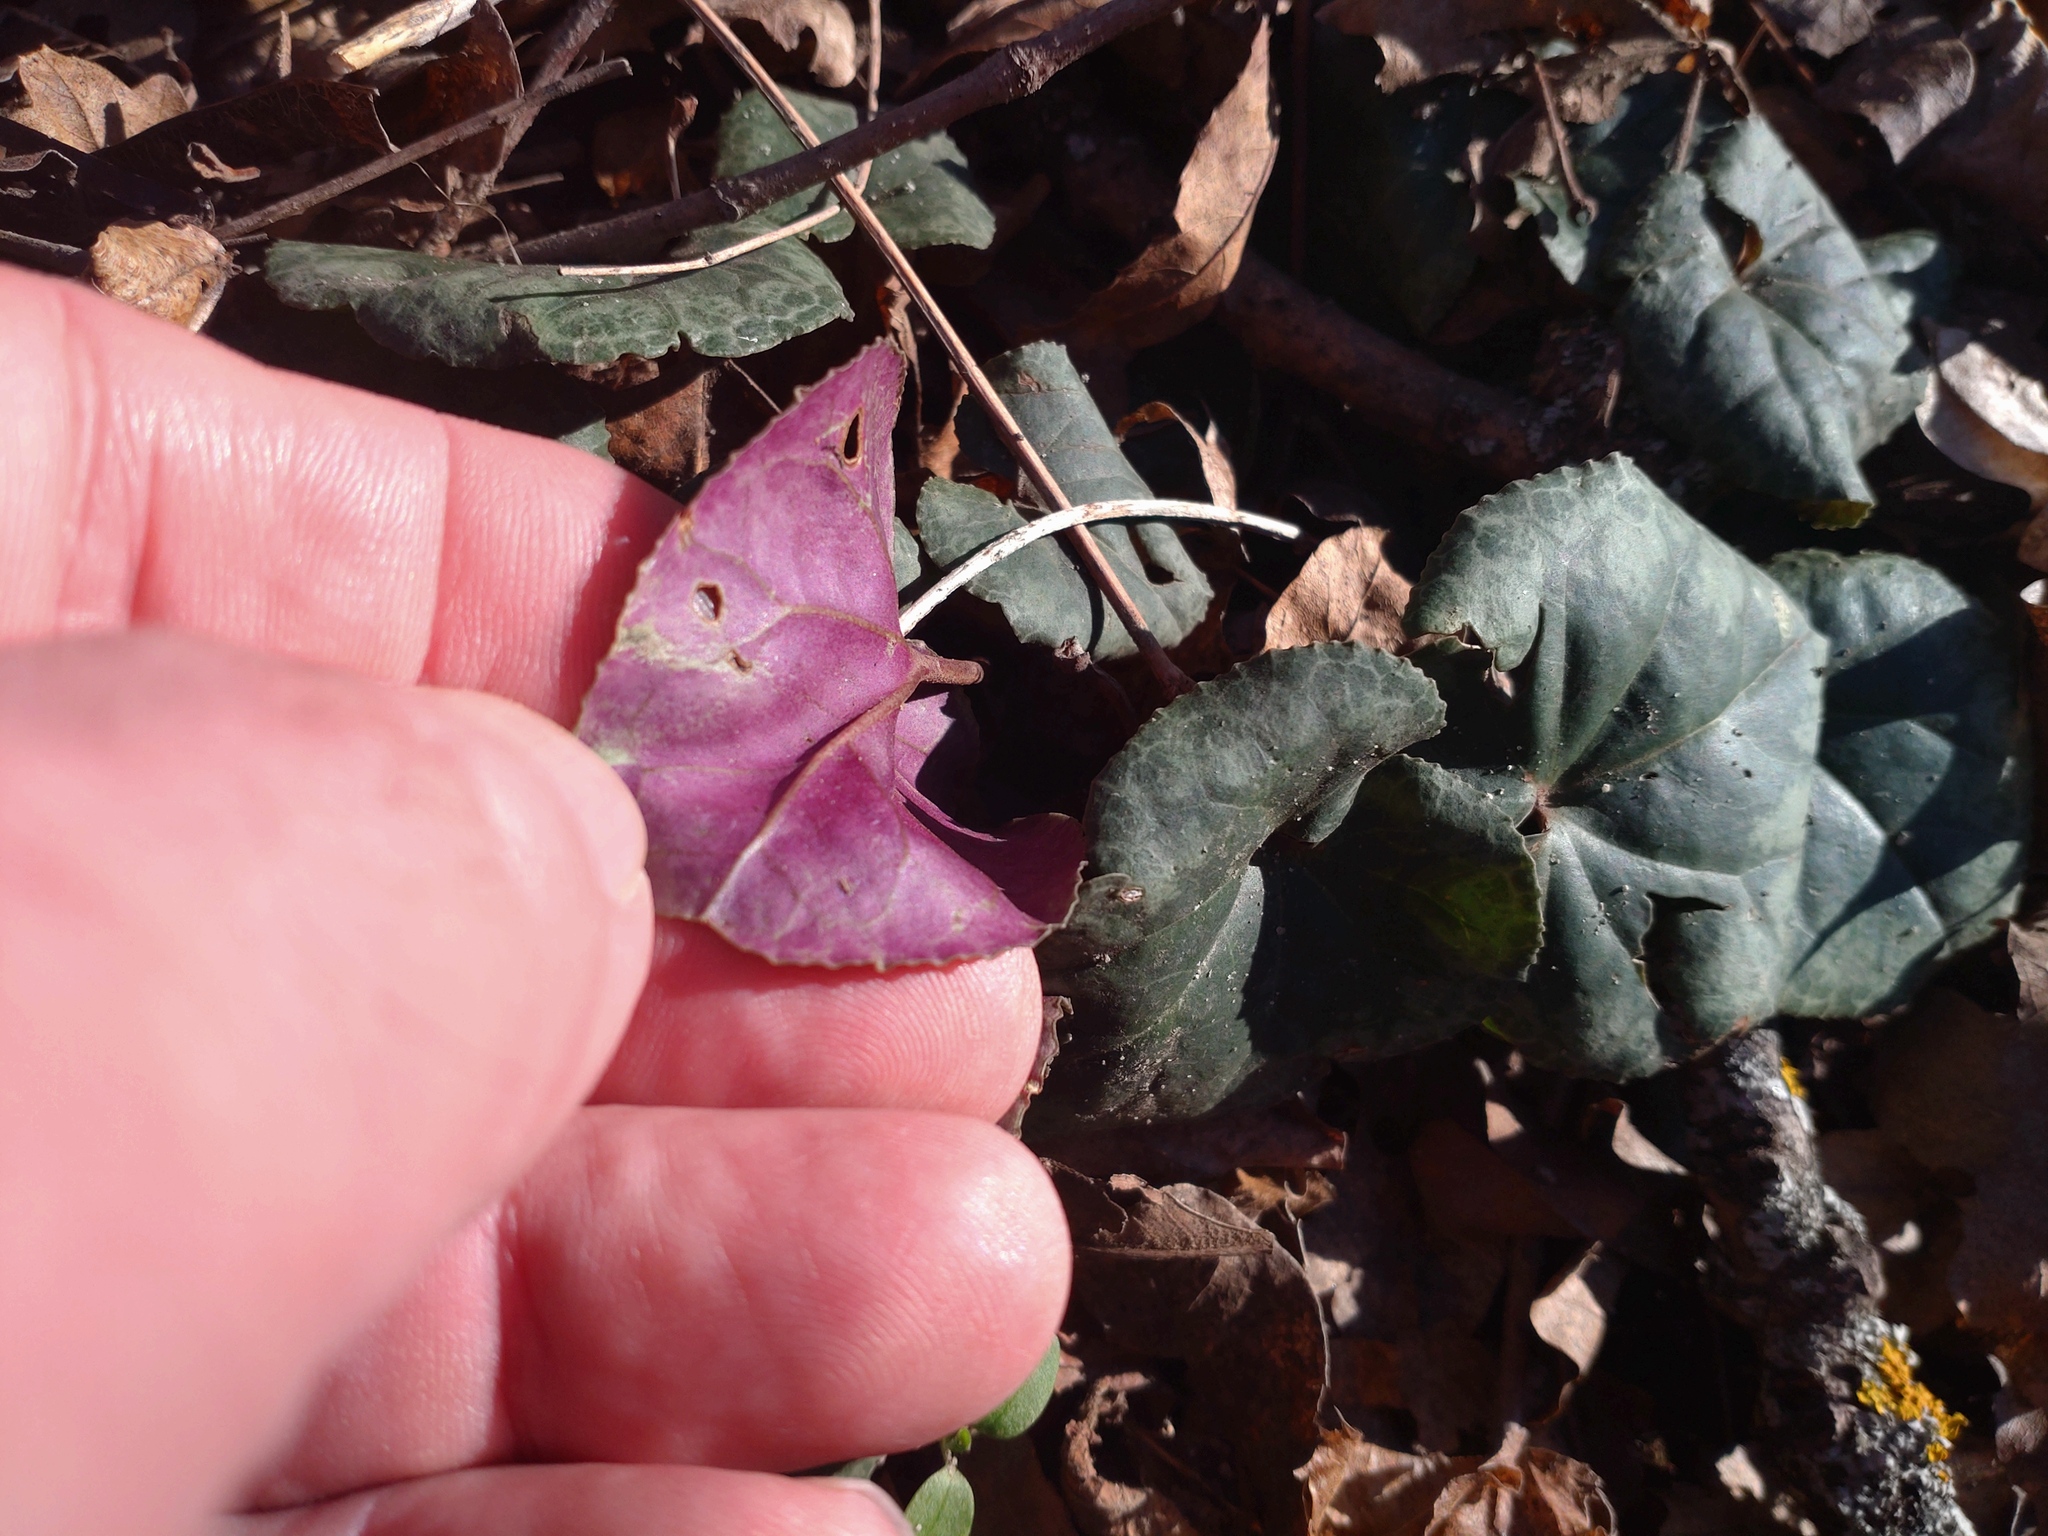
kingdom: Plantae
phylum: Tracheophyta
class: Magnoliopsida
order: Ericales
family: Primulaceae
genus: Cyclamen
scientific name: Cyclamen purpurascens
